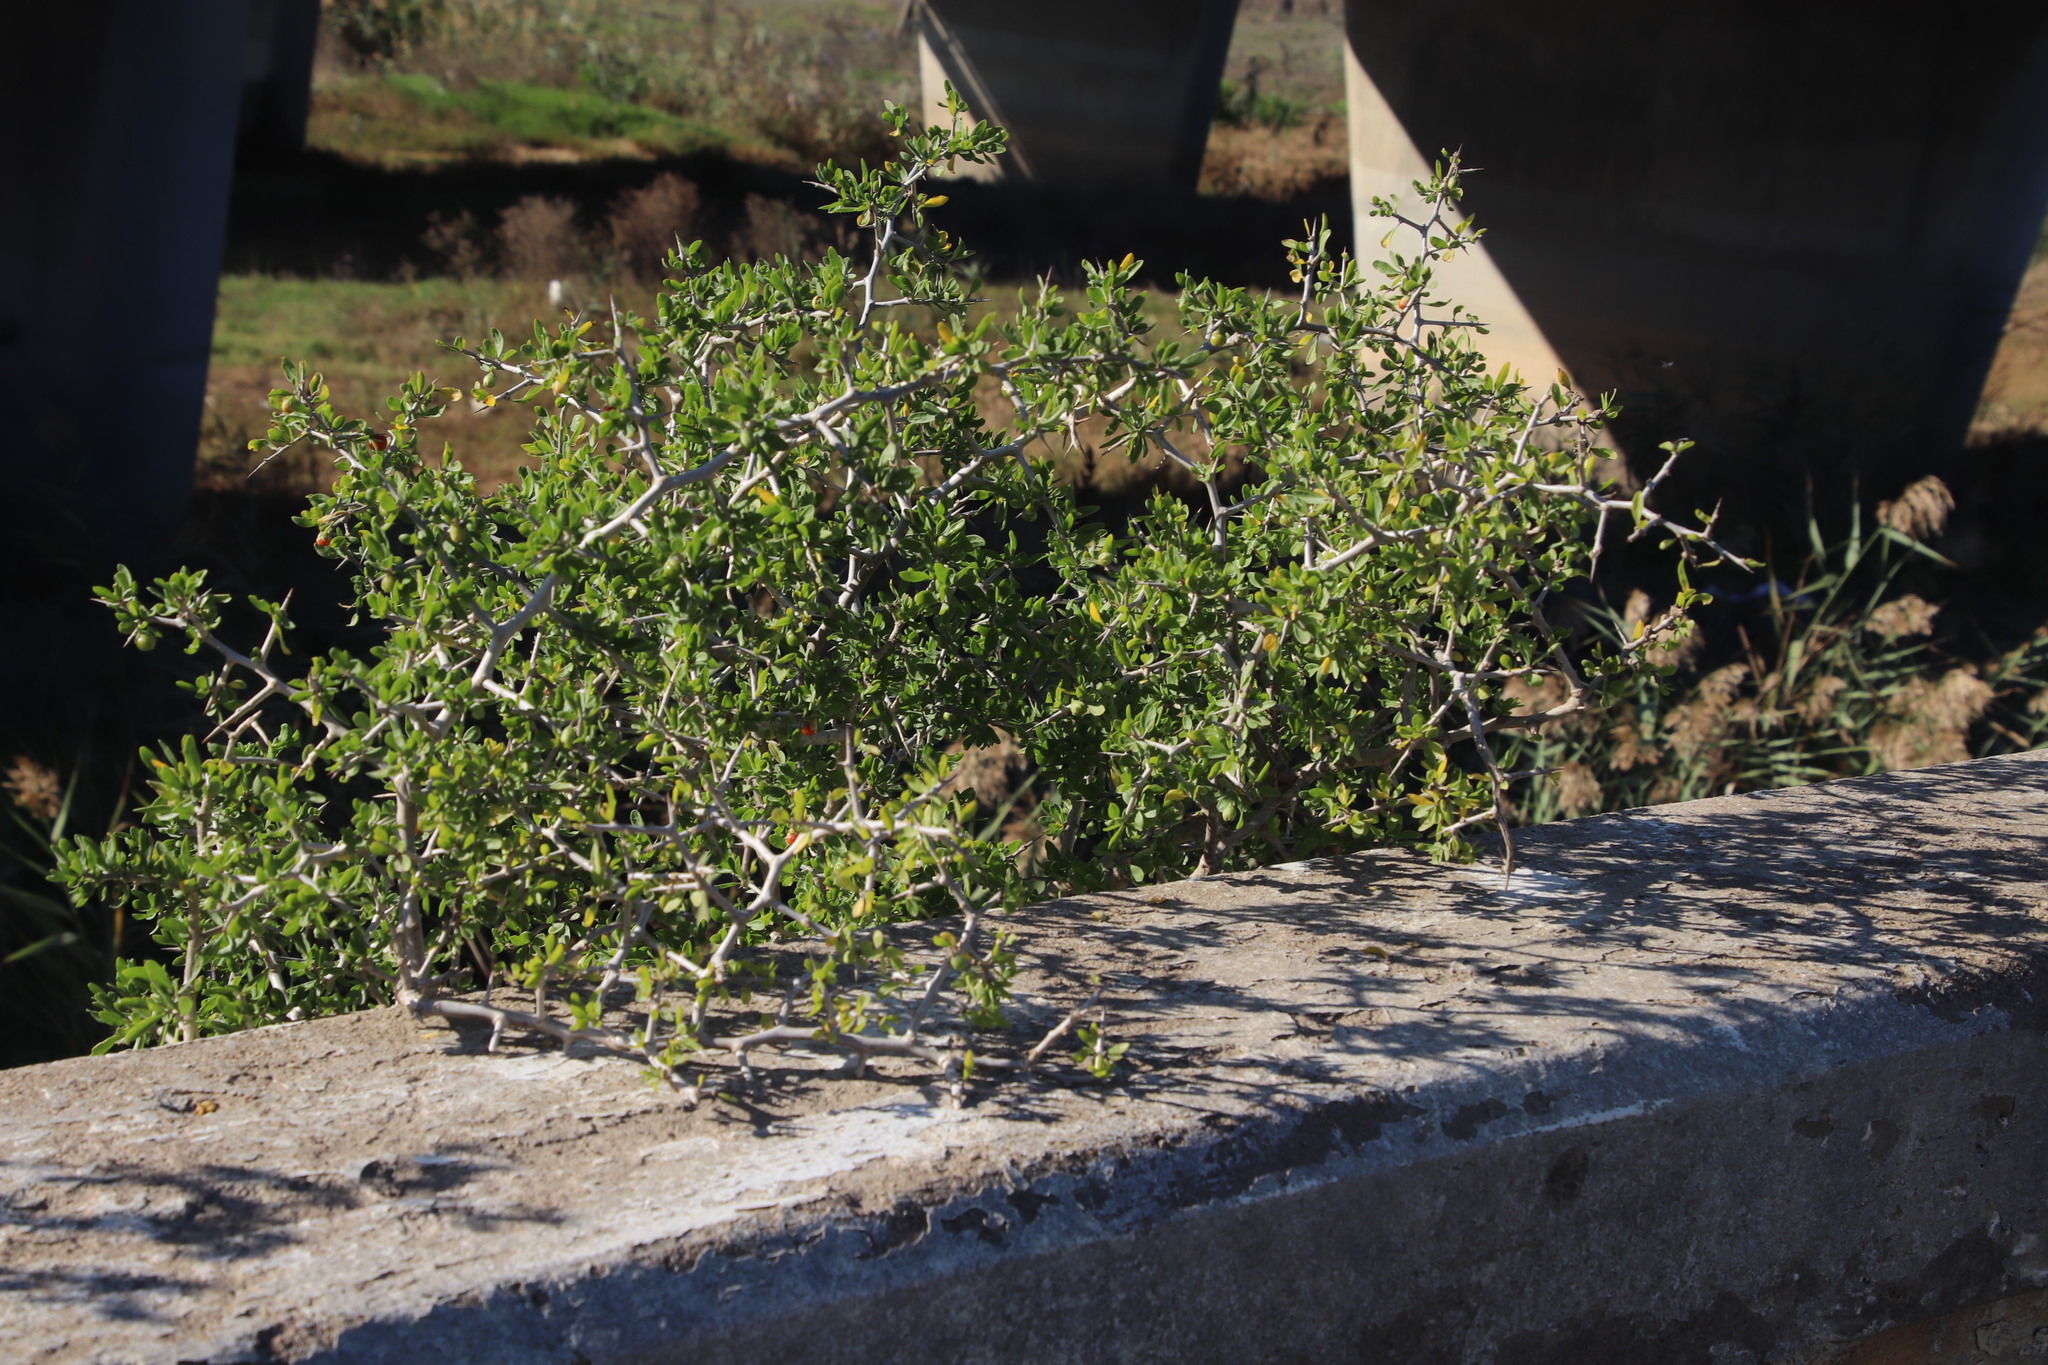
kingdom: Plantae
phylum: Tracheophyta
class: Magnoliopsida
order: Solanales
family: Solanaceae
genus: Lycium
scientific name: Lycium afrum
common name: Kaffir boxthorn
